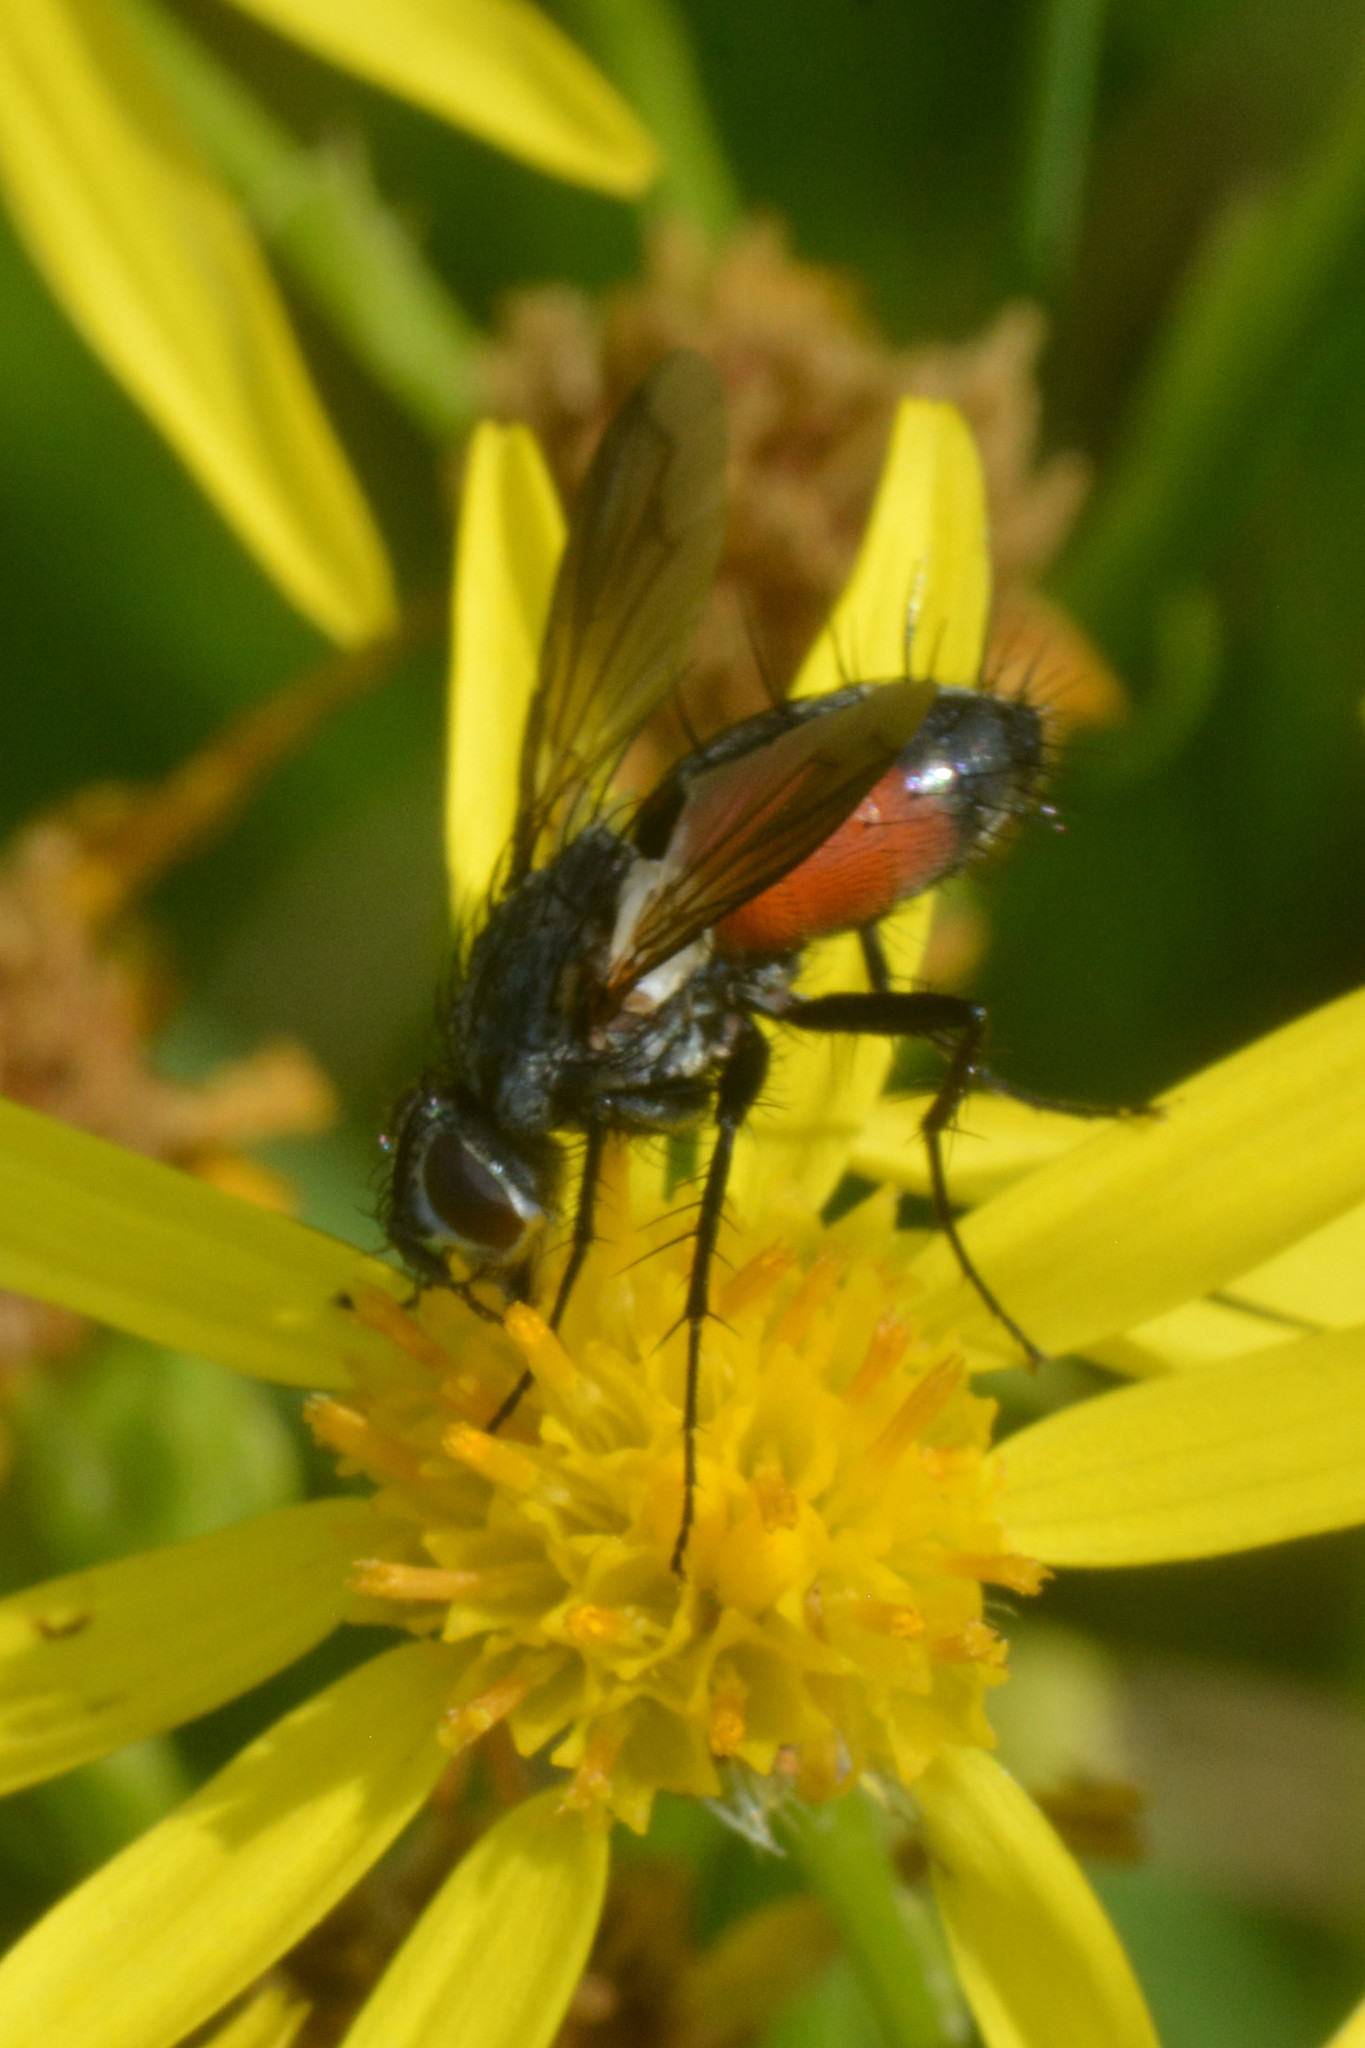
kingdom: Animalia
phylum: Arthropoda
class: Insecta
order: Diptera
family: Tachinidae
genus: Eriothrix
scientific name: Eriothrix rufomaculatus
